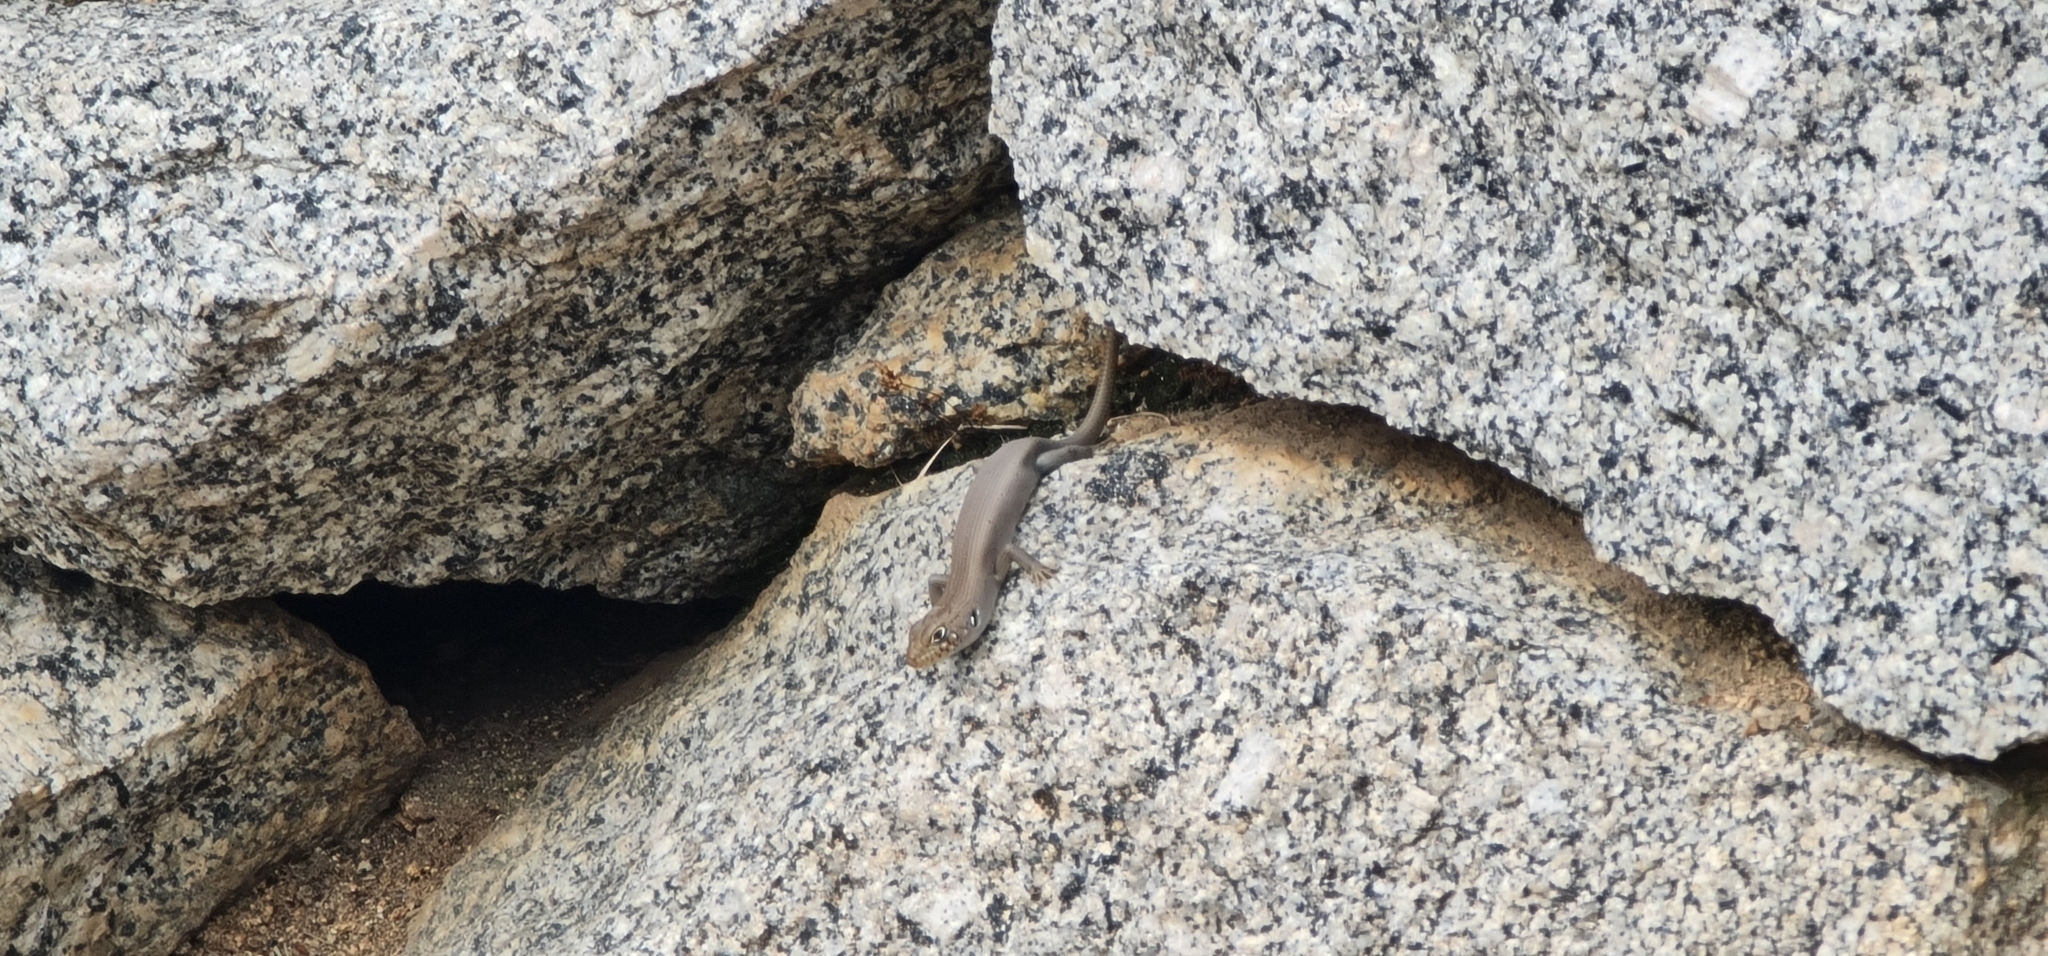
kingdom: Animalia
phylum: Chordata
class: Squamata
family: Scincidae
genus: Liopholis
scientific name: Liopholis modesta
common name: Eastern ranges rock-skink
